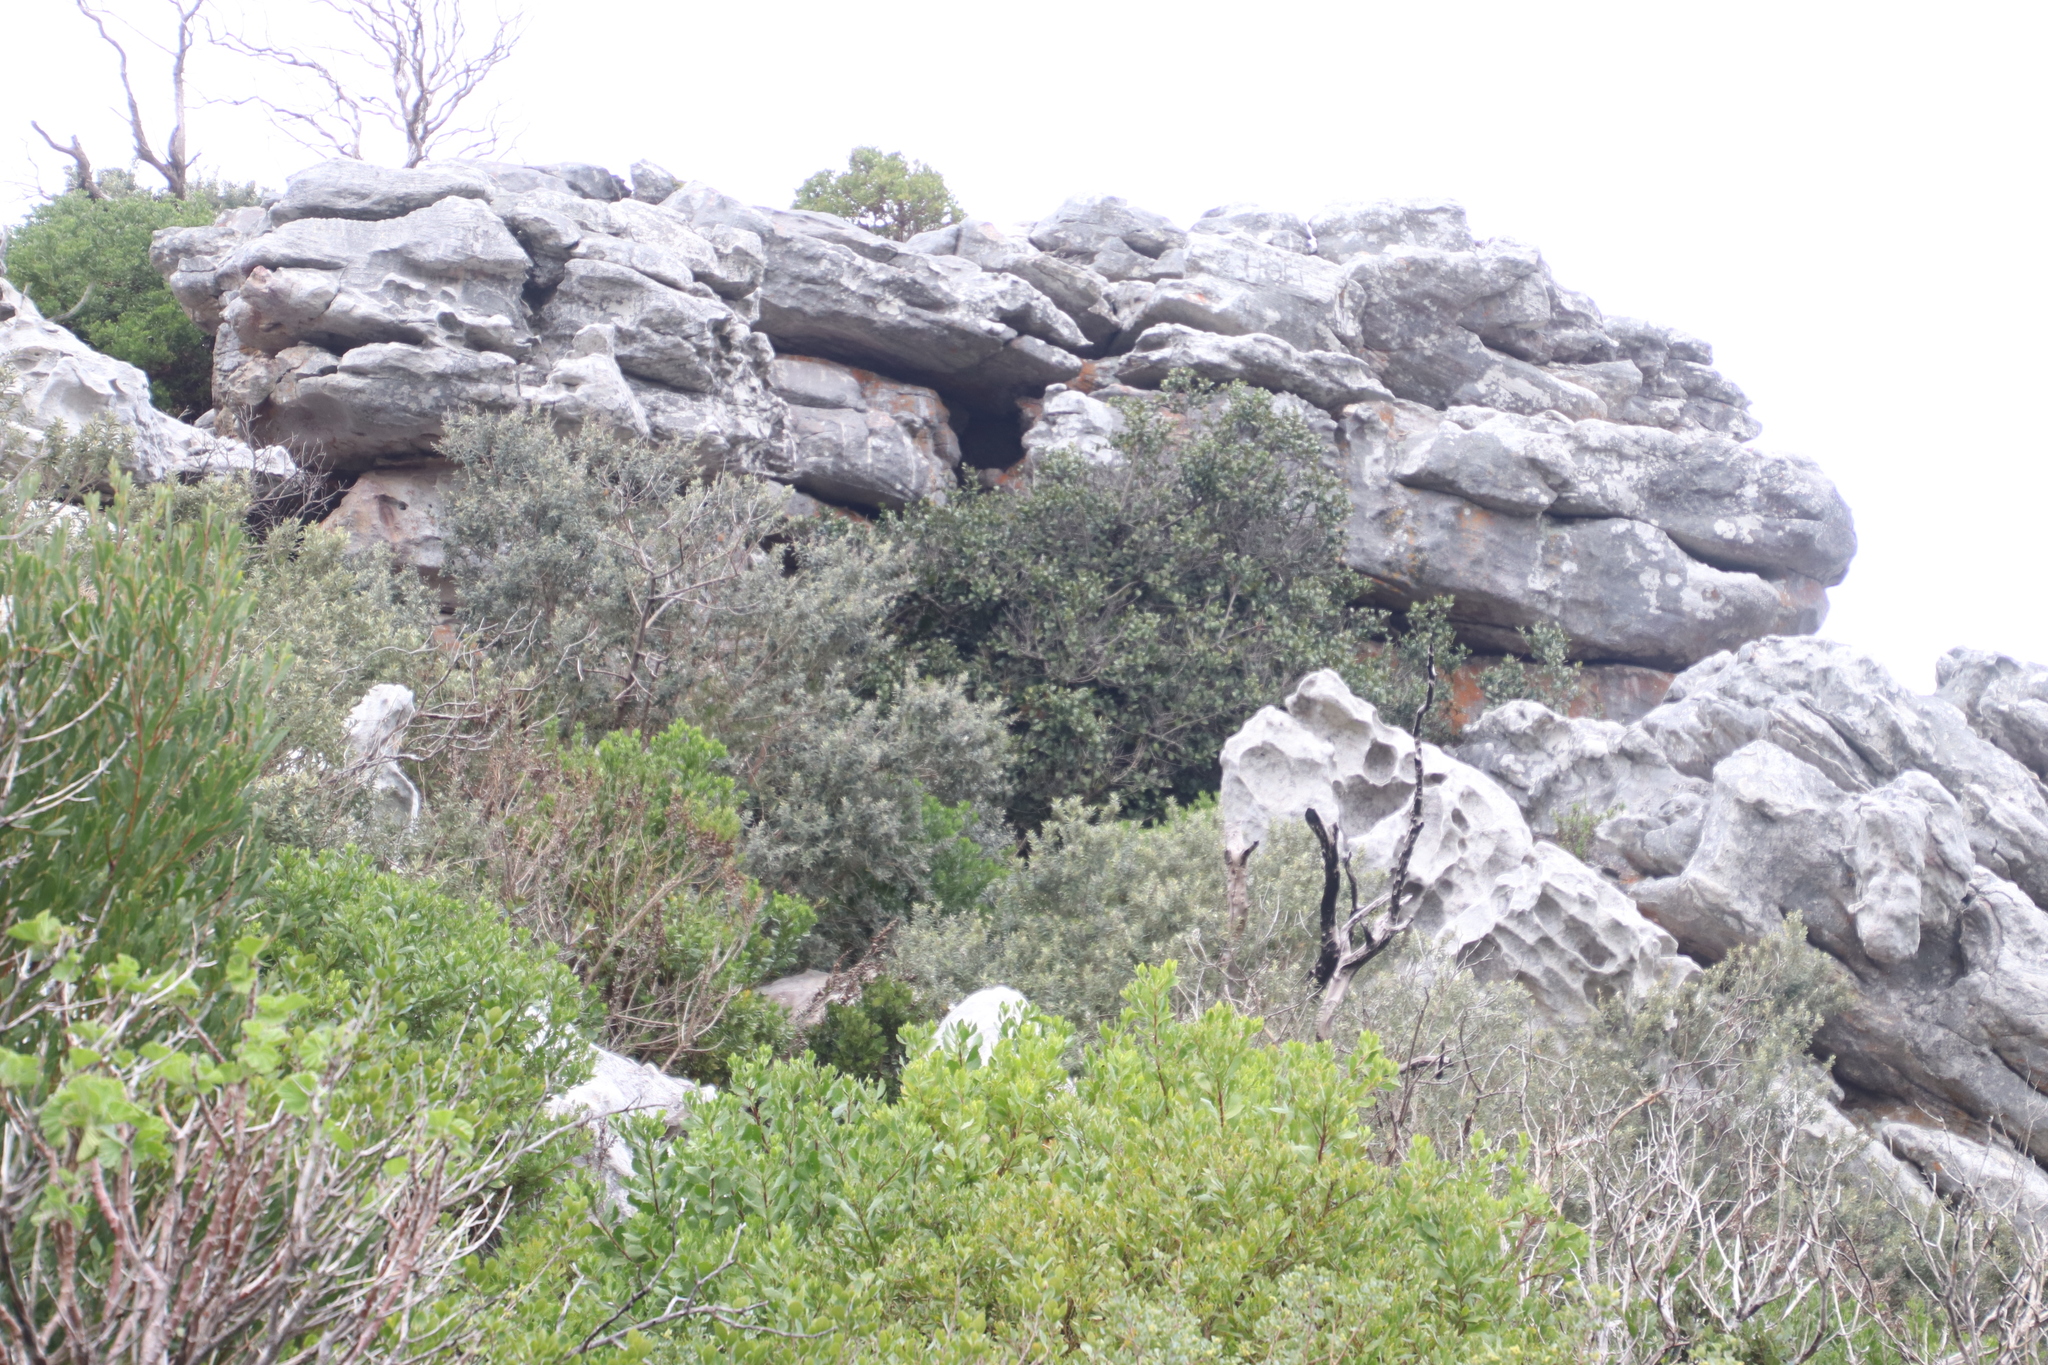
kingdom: Plantae
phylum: Tracheophyta
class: Magnoliopsida
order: Asterales
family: Asteraceae
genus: Tarchonanthus
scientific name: Tarchonanthus littoralis
